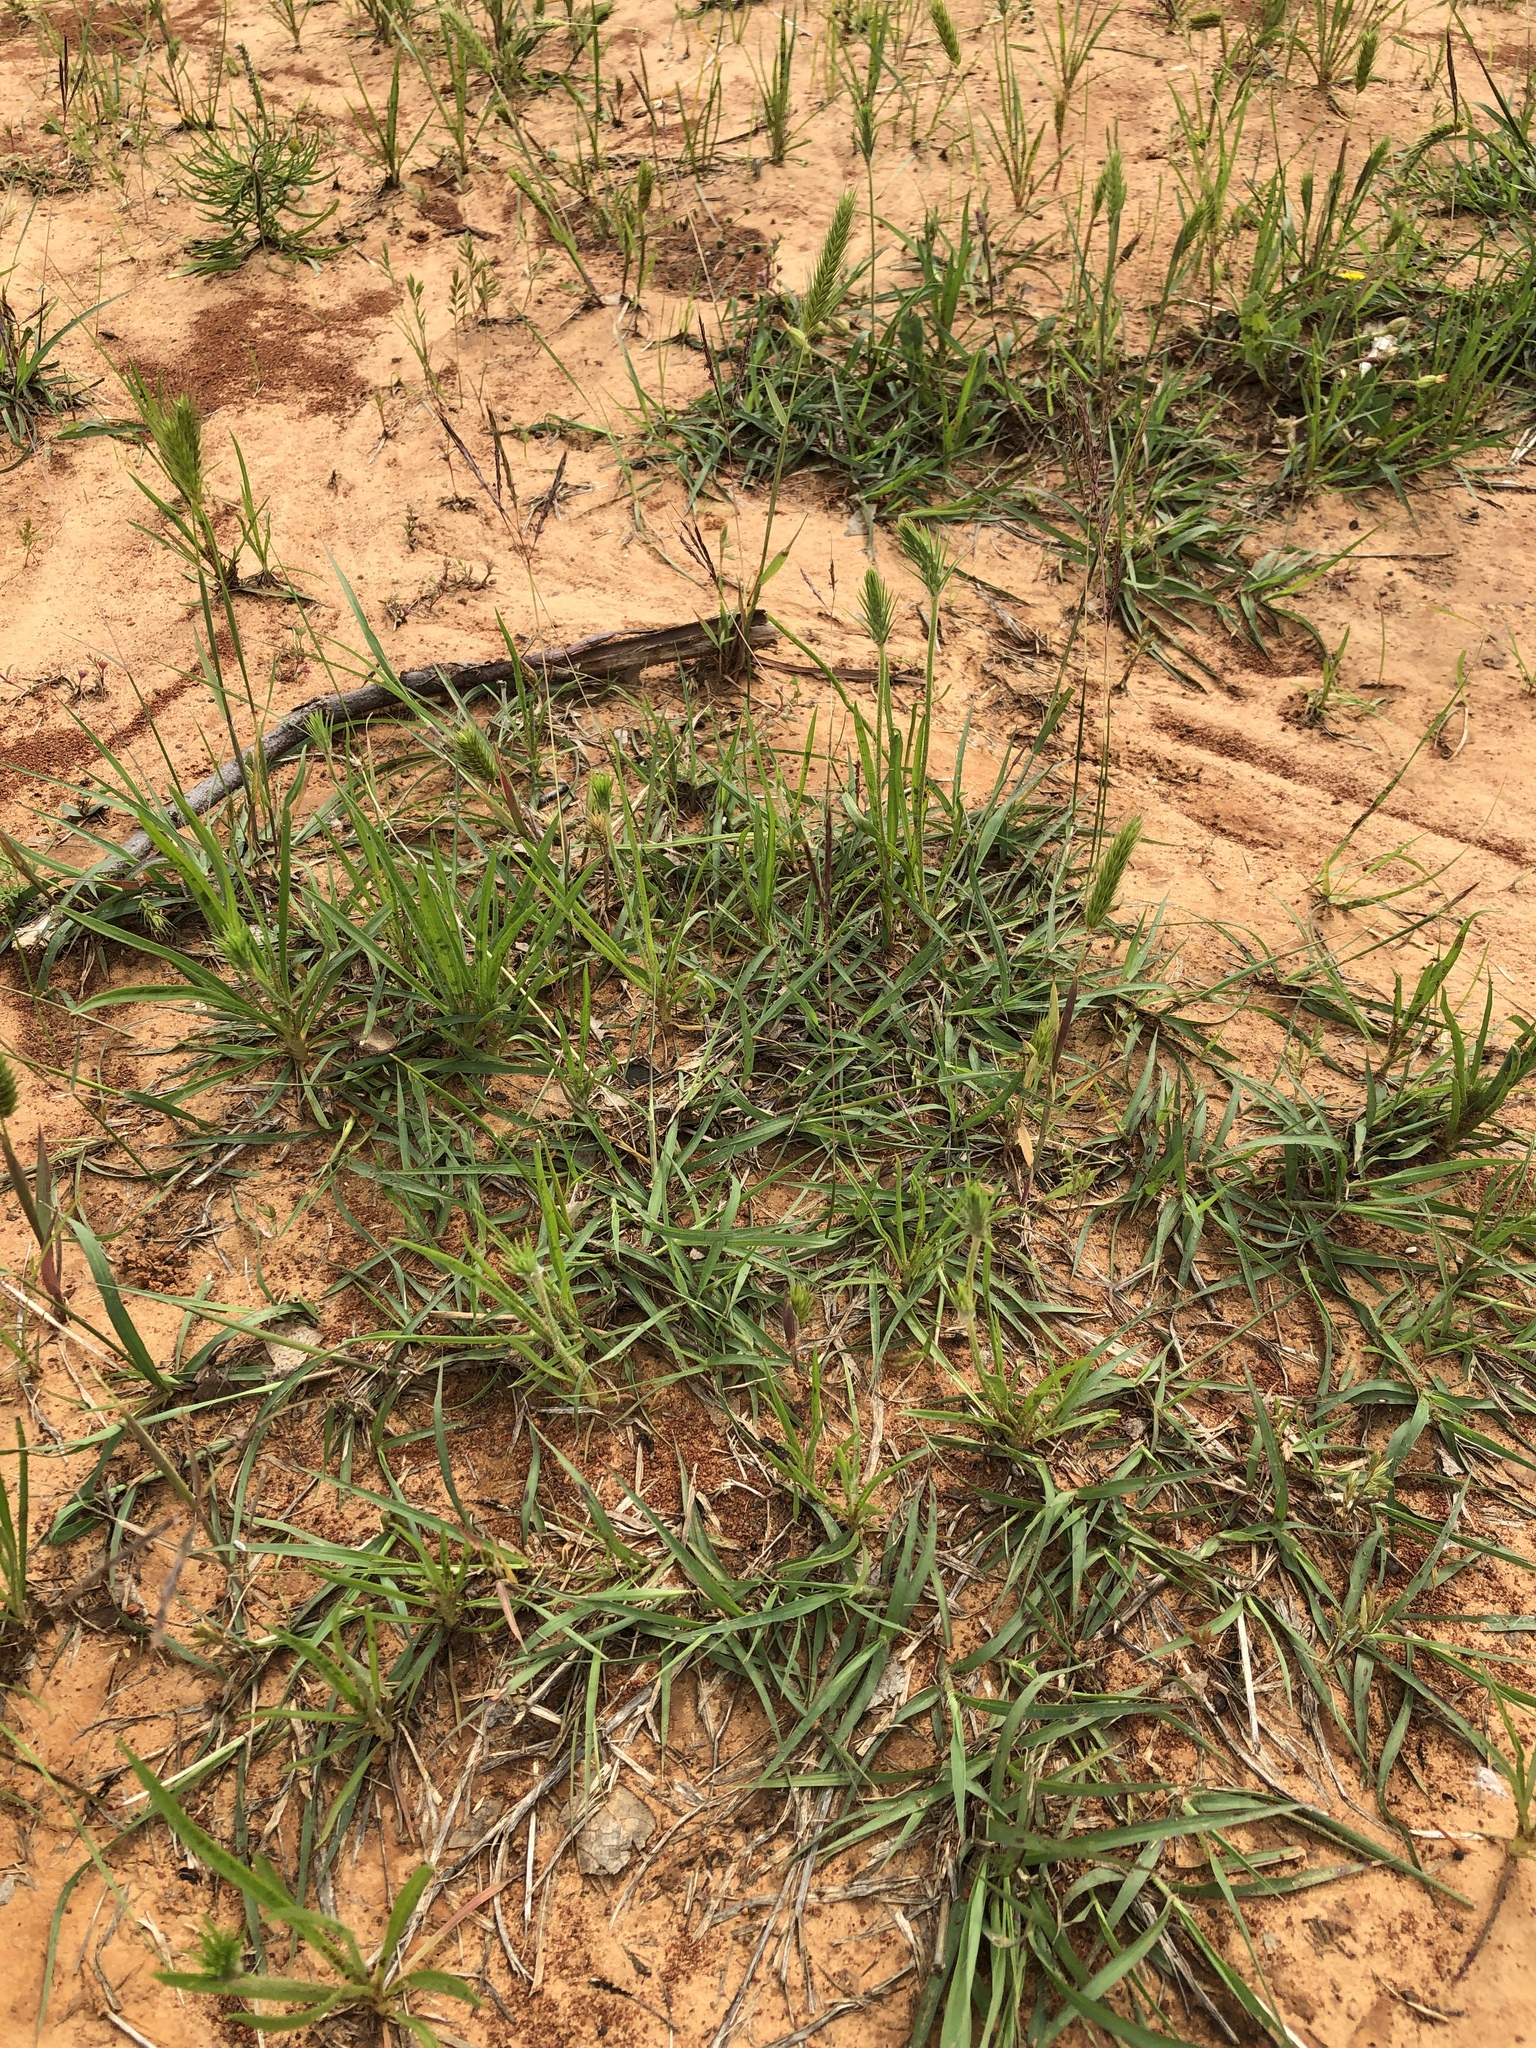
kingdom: Plantae
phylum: Tracheophyta
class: Liliopsida
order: Poales
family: Poaceae
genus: Bothriochloa
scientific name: Bothriochloa ischaemum
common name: Yellow bluestem
